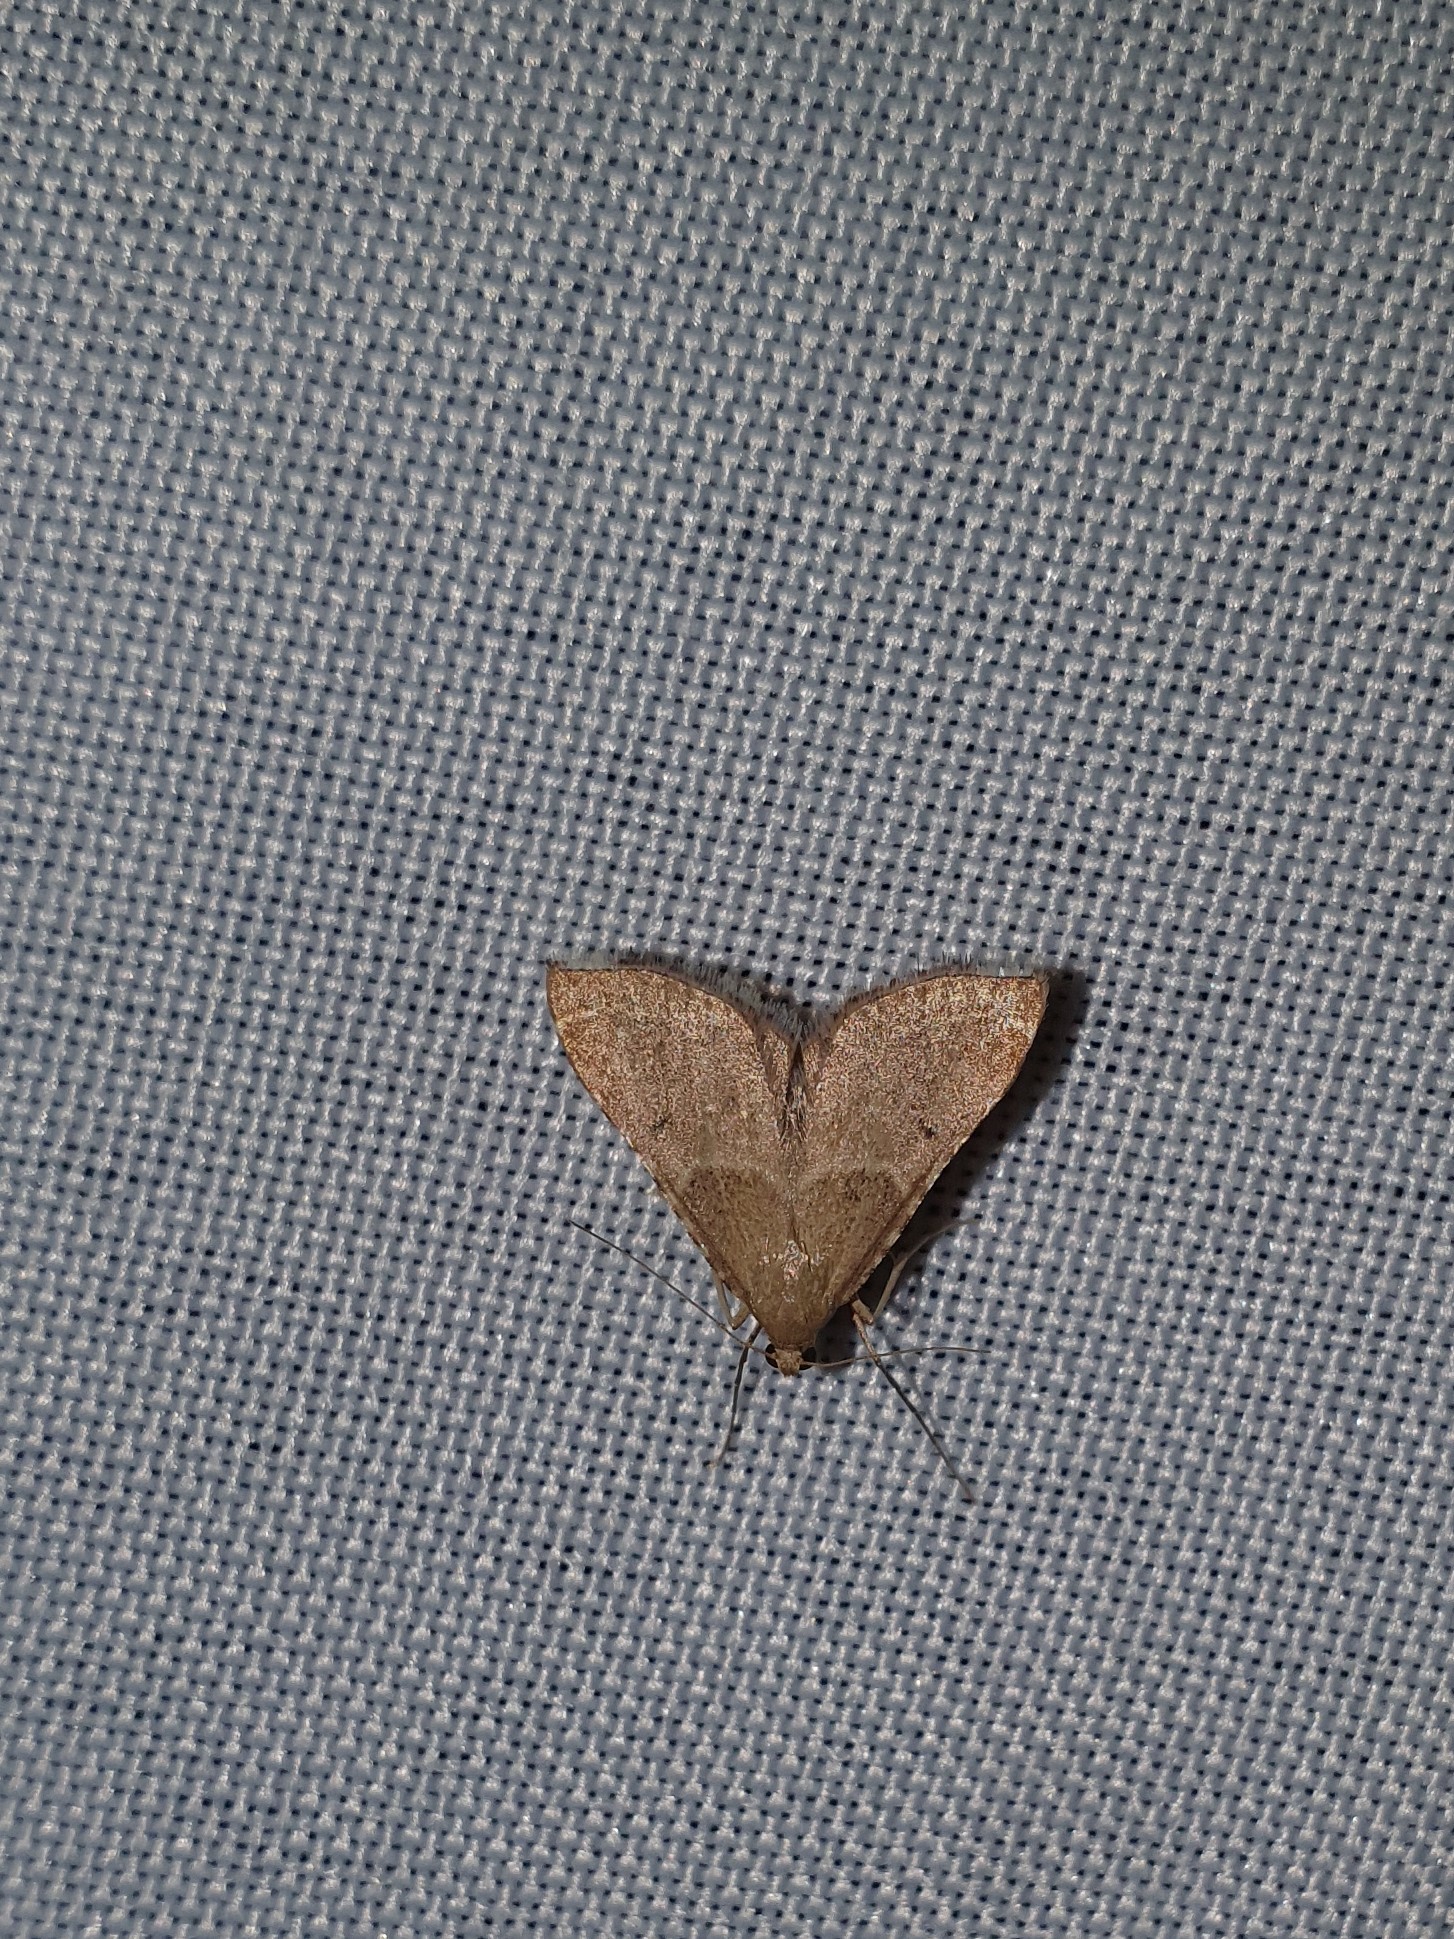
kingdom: Animalia
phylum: Arthropoda
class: Insecta
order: Lepidoptera
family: Pyralidae
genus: Endotricha
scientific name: Endotricha flammealis
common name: Rosy tabby
